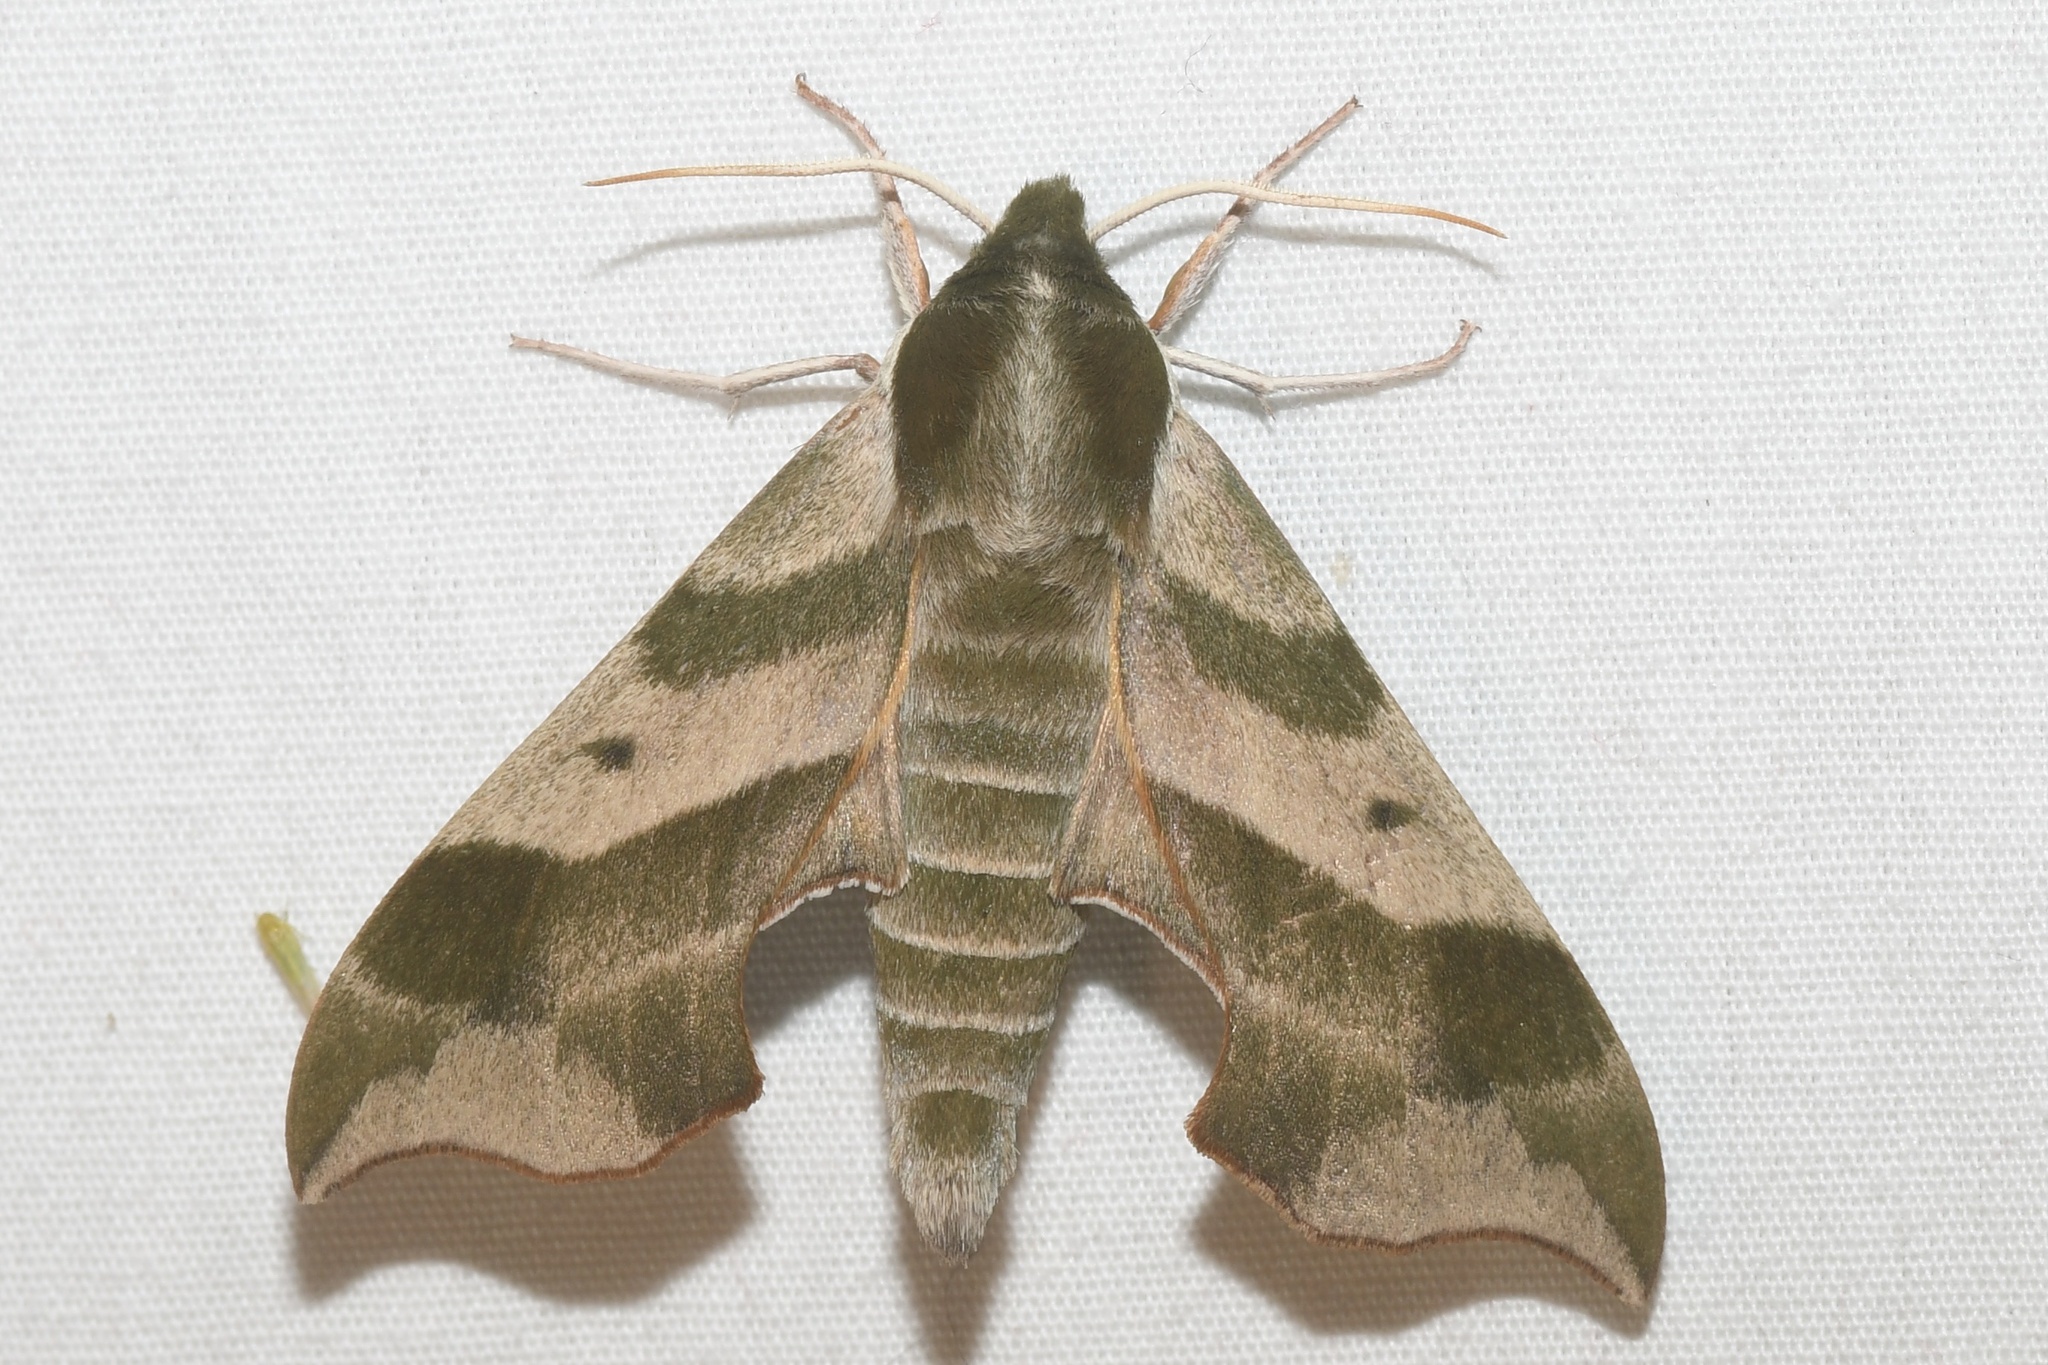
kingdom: Animalia
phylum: Arthropoda
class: Insecta
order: Lepidoptera
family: Sphingidae
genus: Darapsa
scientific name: Darapsa myron
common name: Hog sphinx
